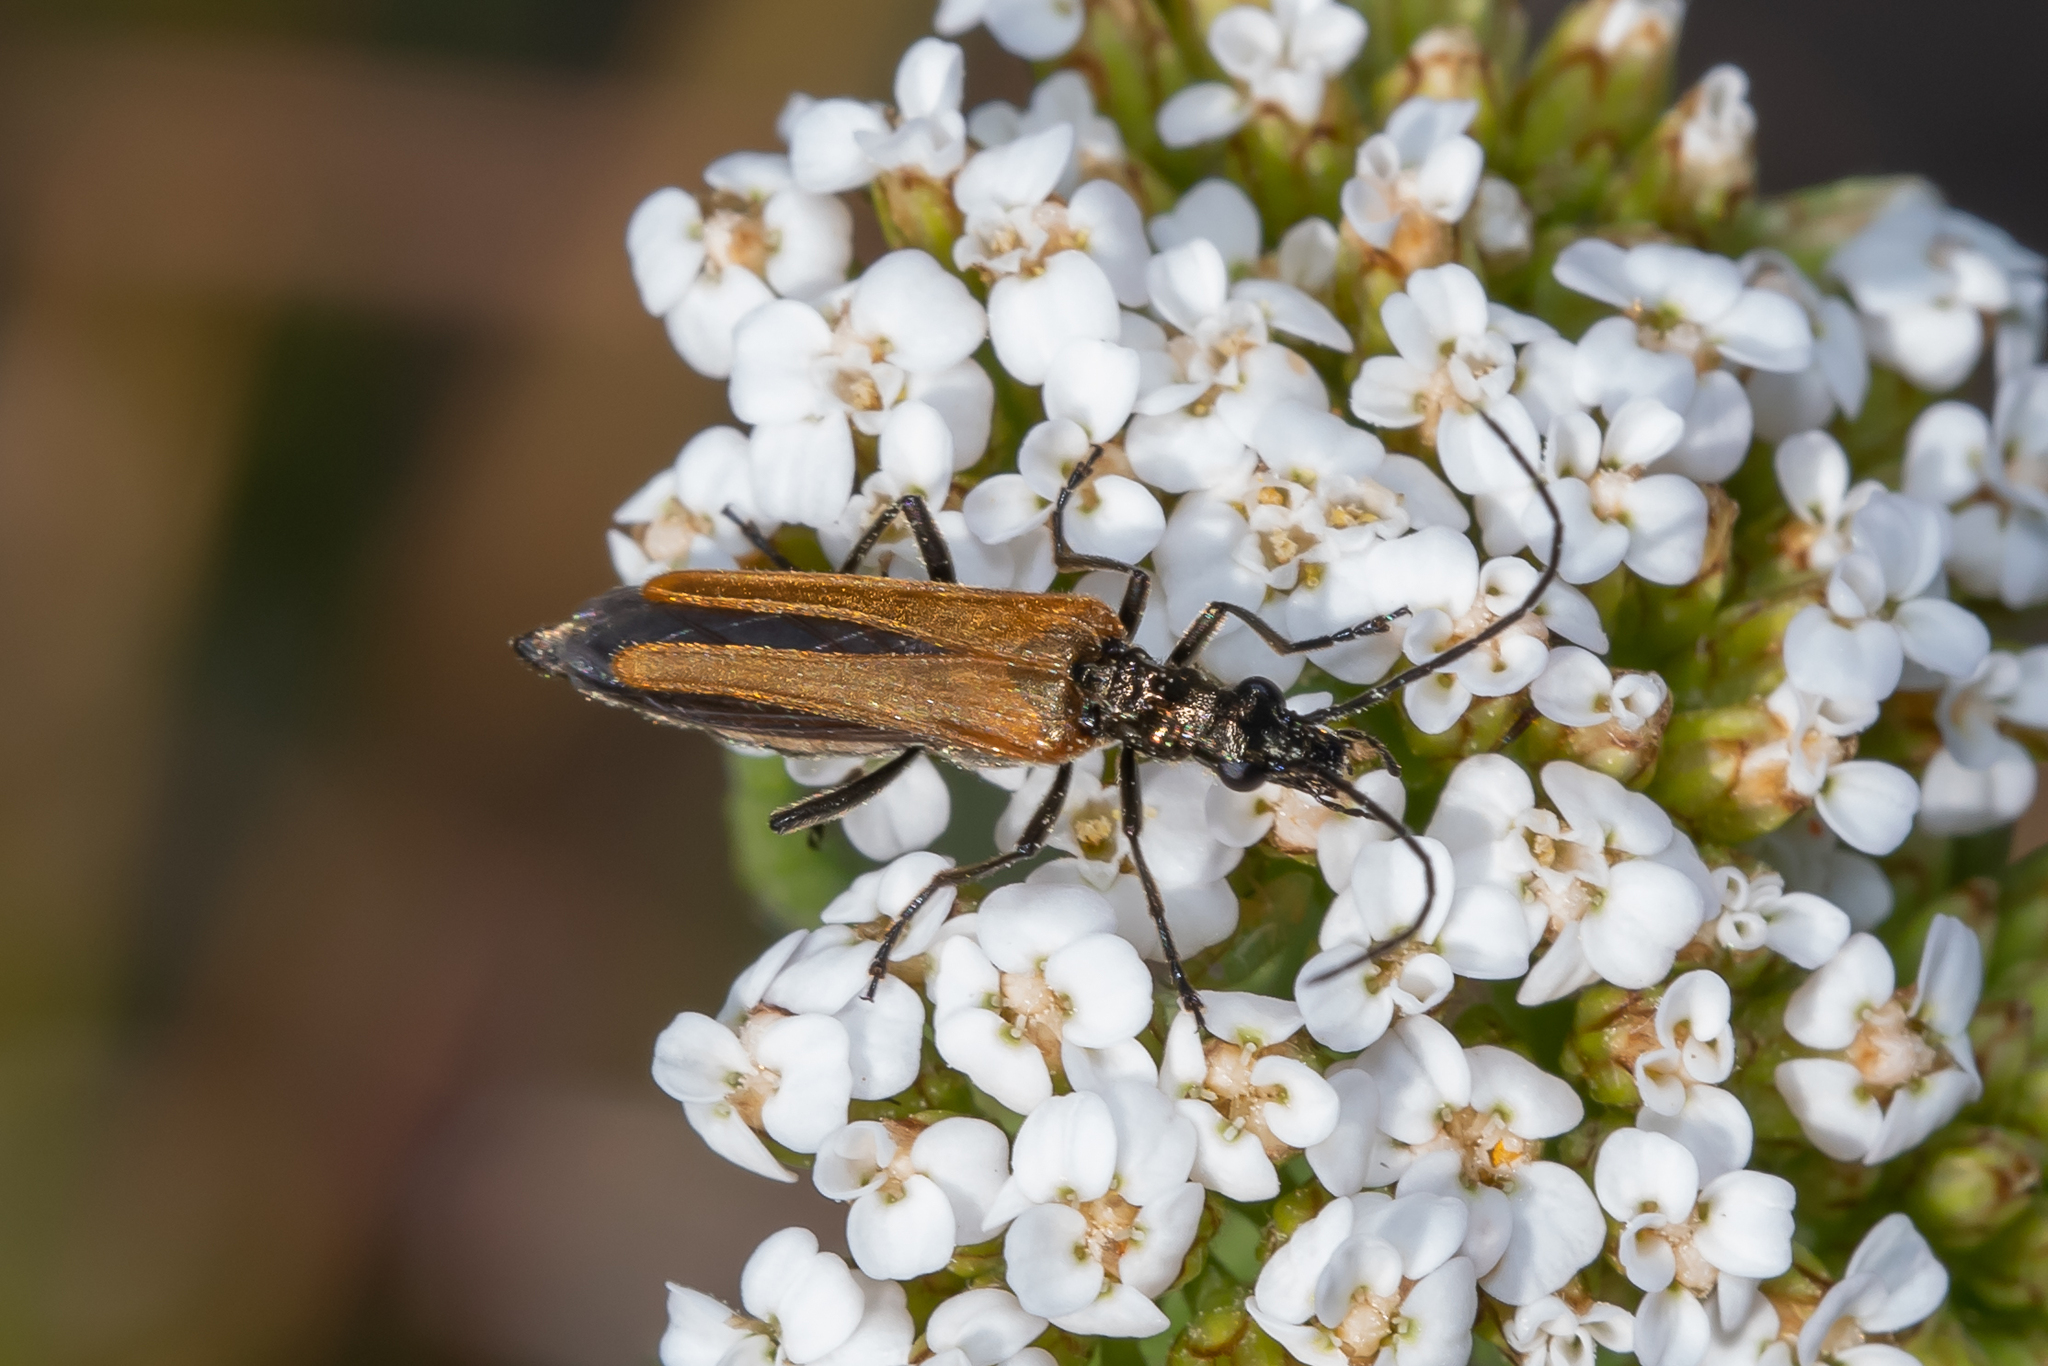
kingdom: Animalia
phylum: Arthropoda
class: Insecta
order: Coleoptera
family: Oedemeridae
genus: Oedemera
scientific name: Oedemera femorata
